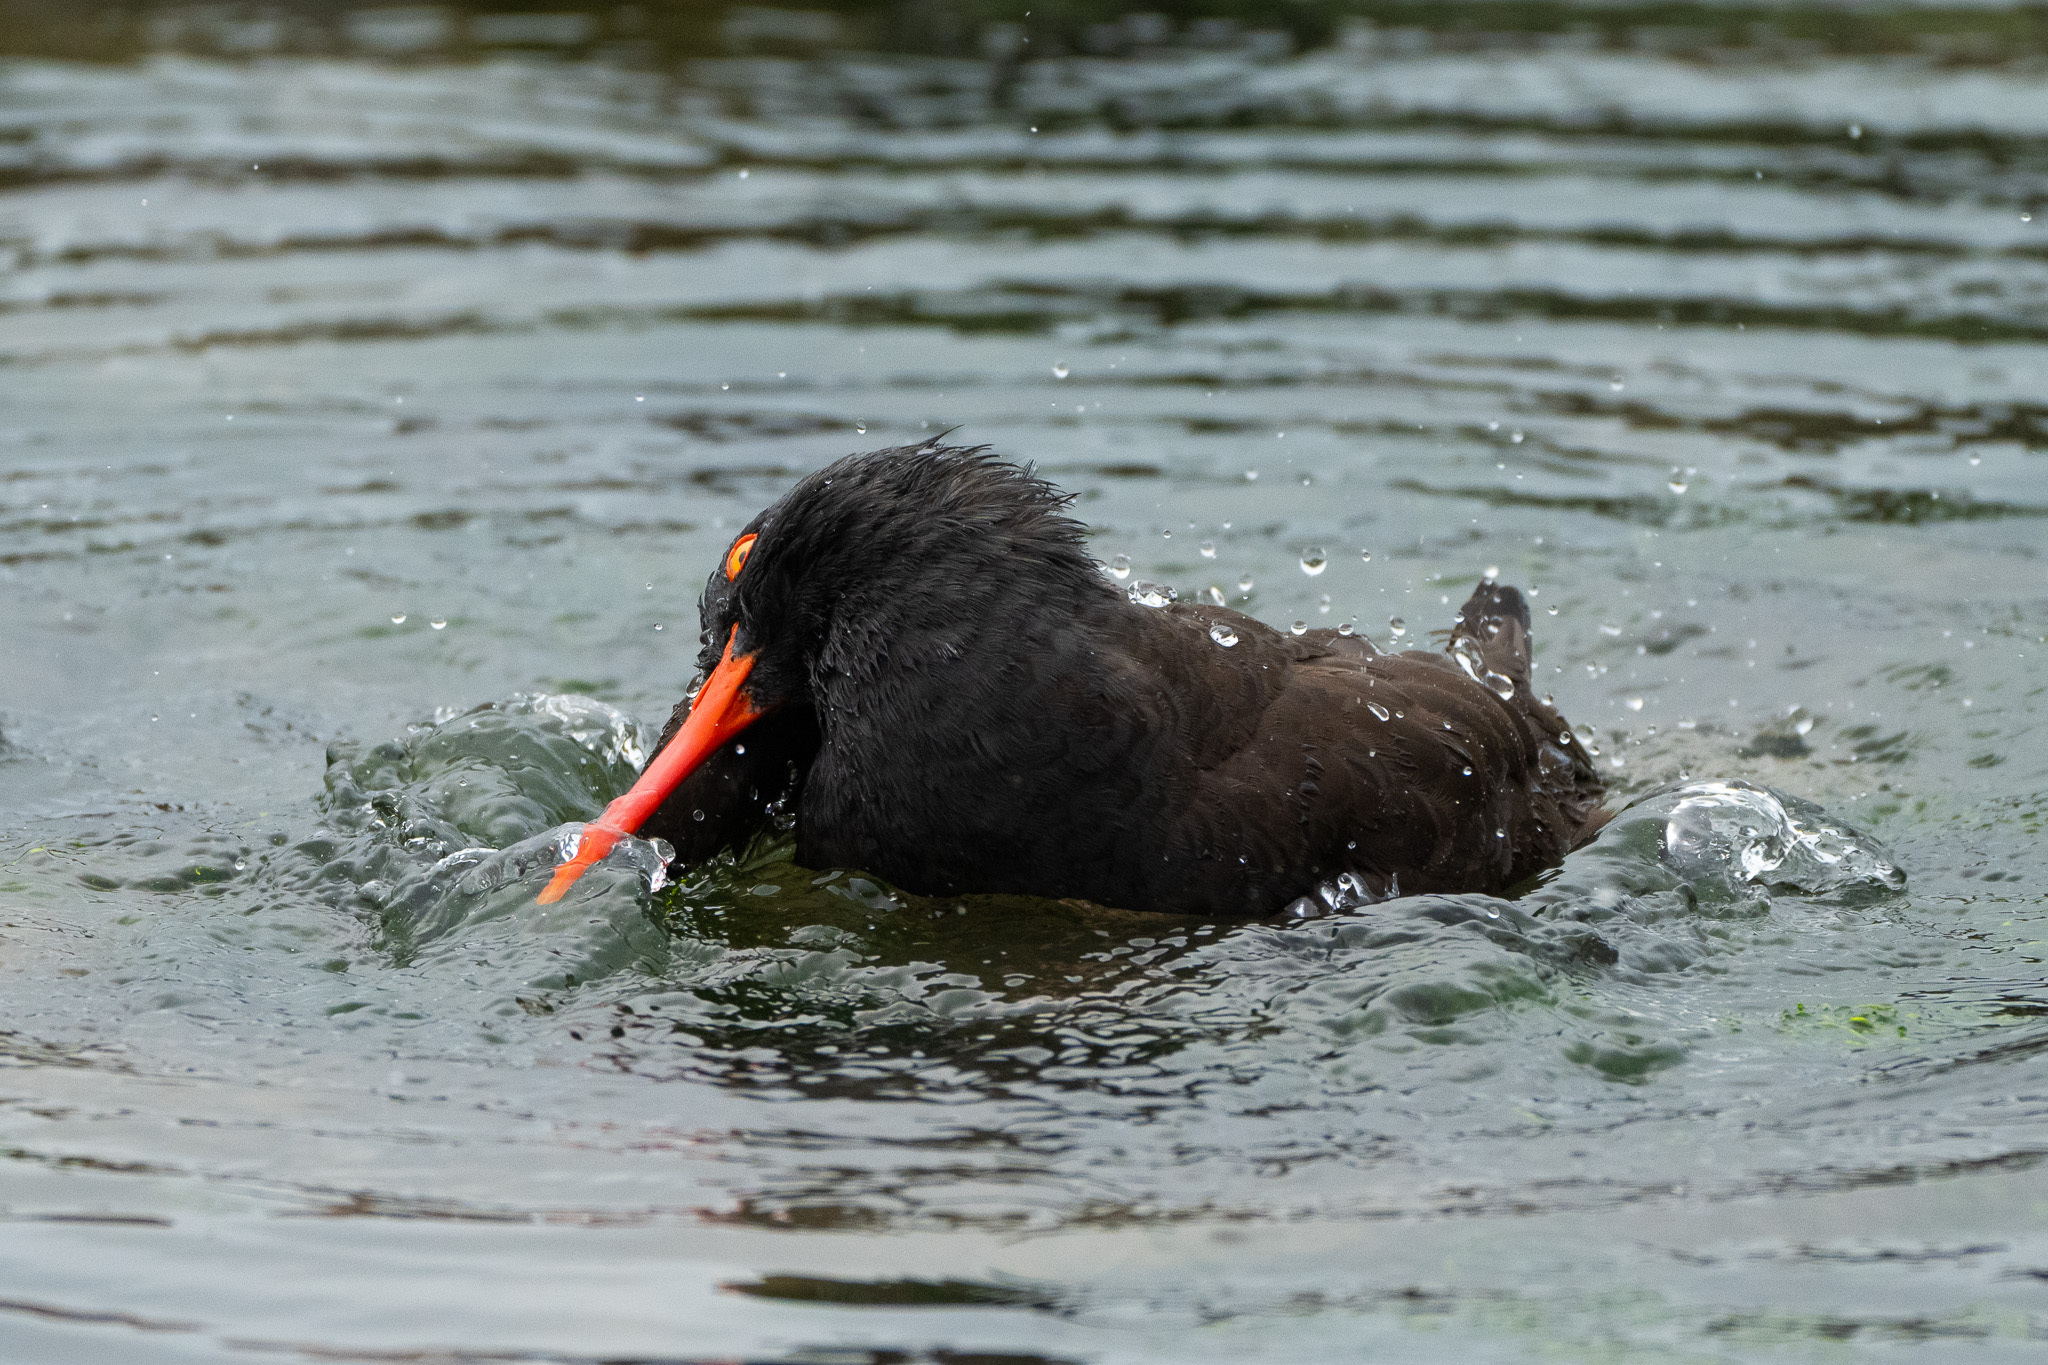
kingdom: Animalia
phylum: Chordata
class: Aves
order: Charadriiformes
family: Haematopodidae
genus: Haematopus
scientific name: Haematopus bachmani
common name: Black oystercatcher
